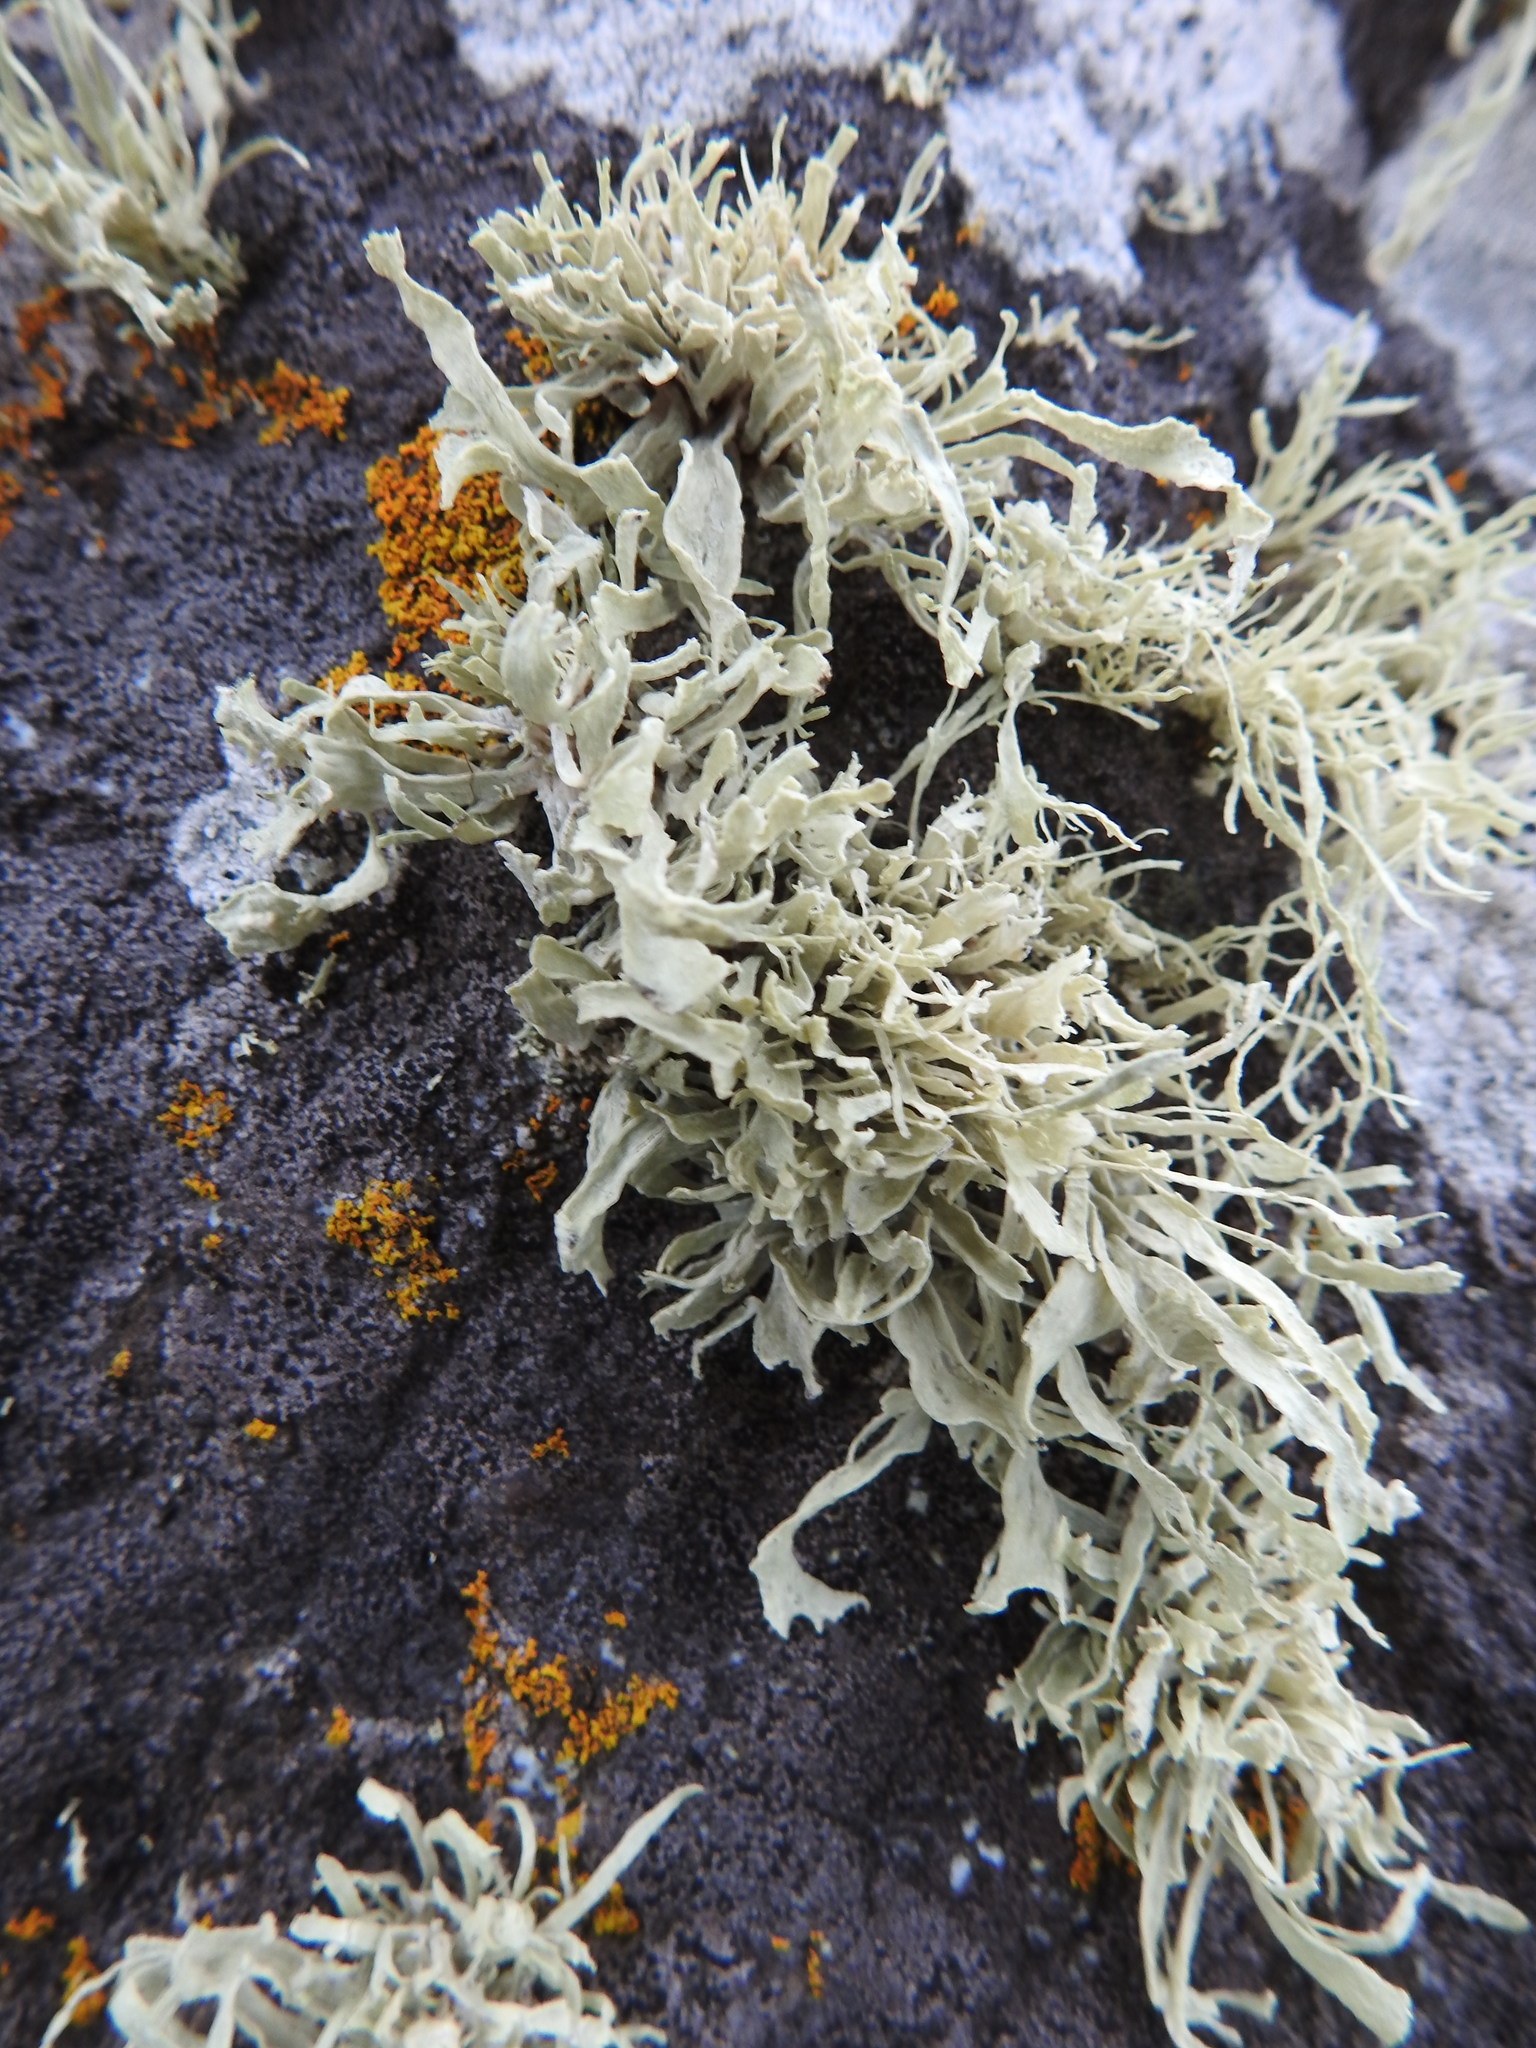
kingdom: Fungi
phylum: Ascomycota
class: Lecanoromycetes
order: Lecanorales
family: Ramalinaceae
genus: Ramalina
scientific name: Ramalina laevigata
